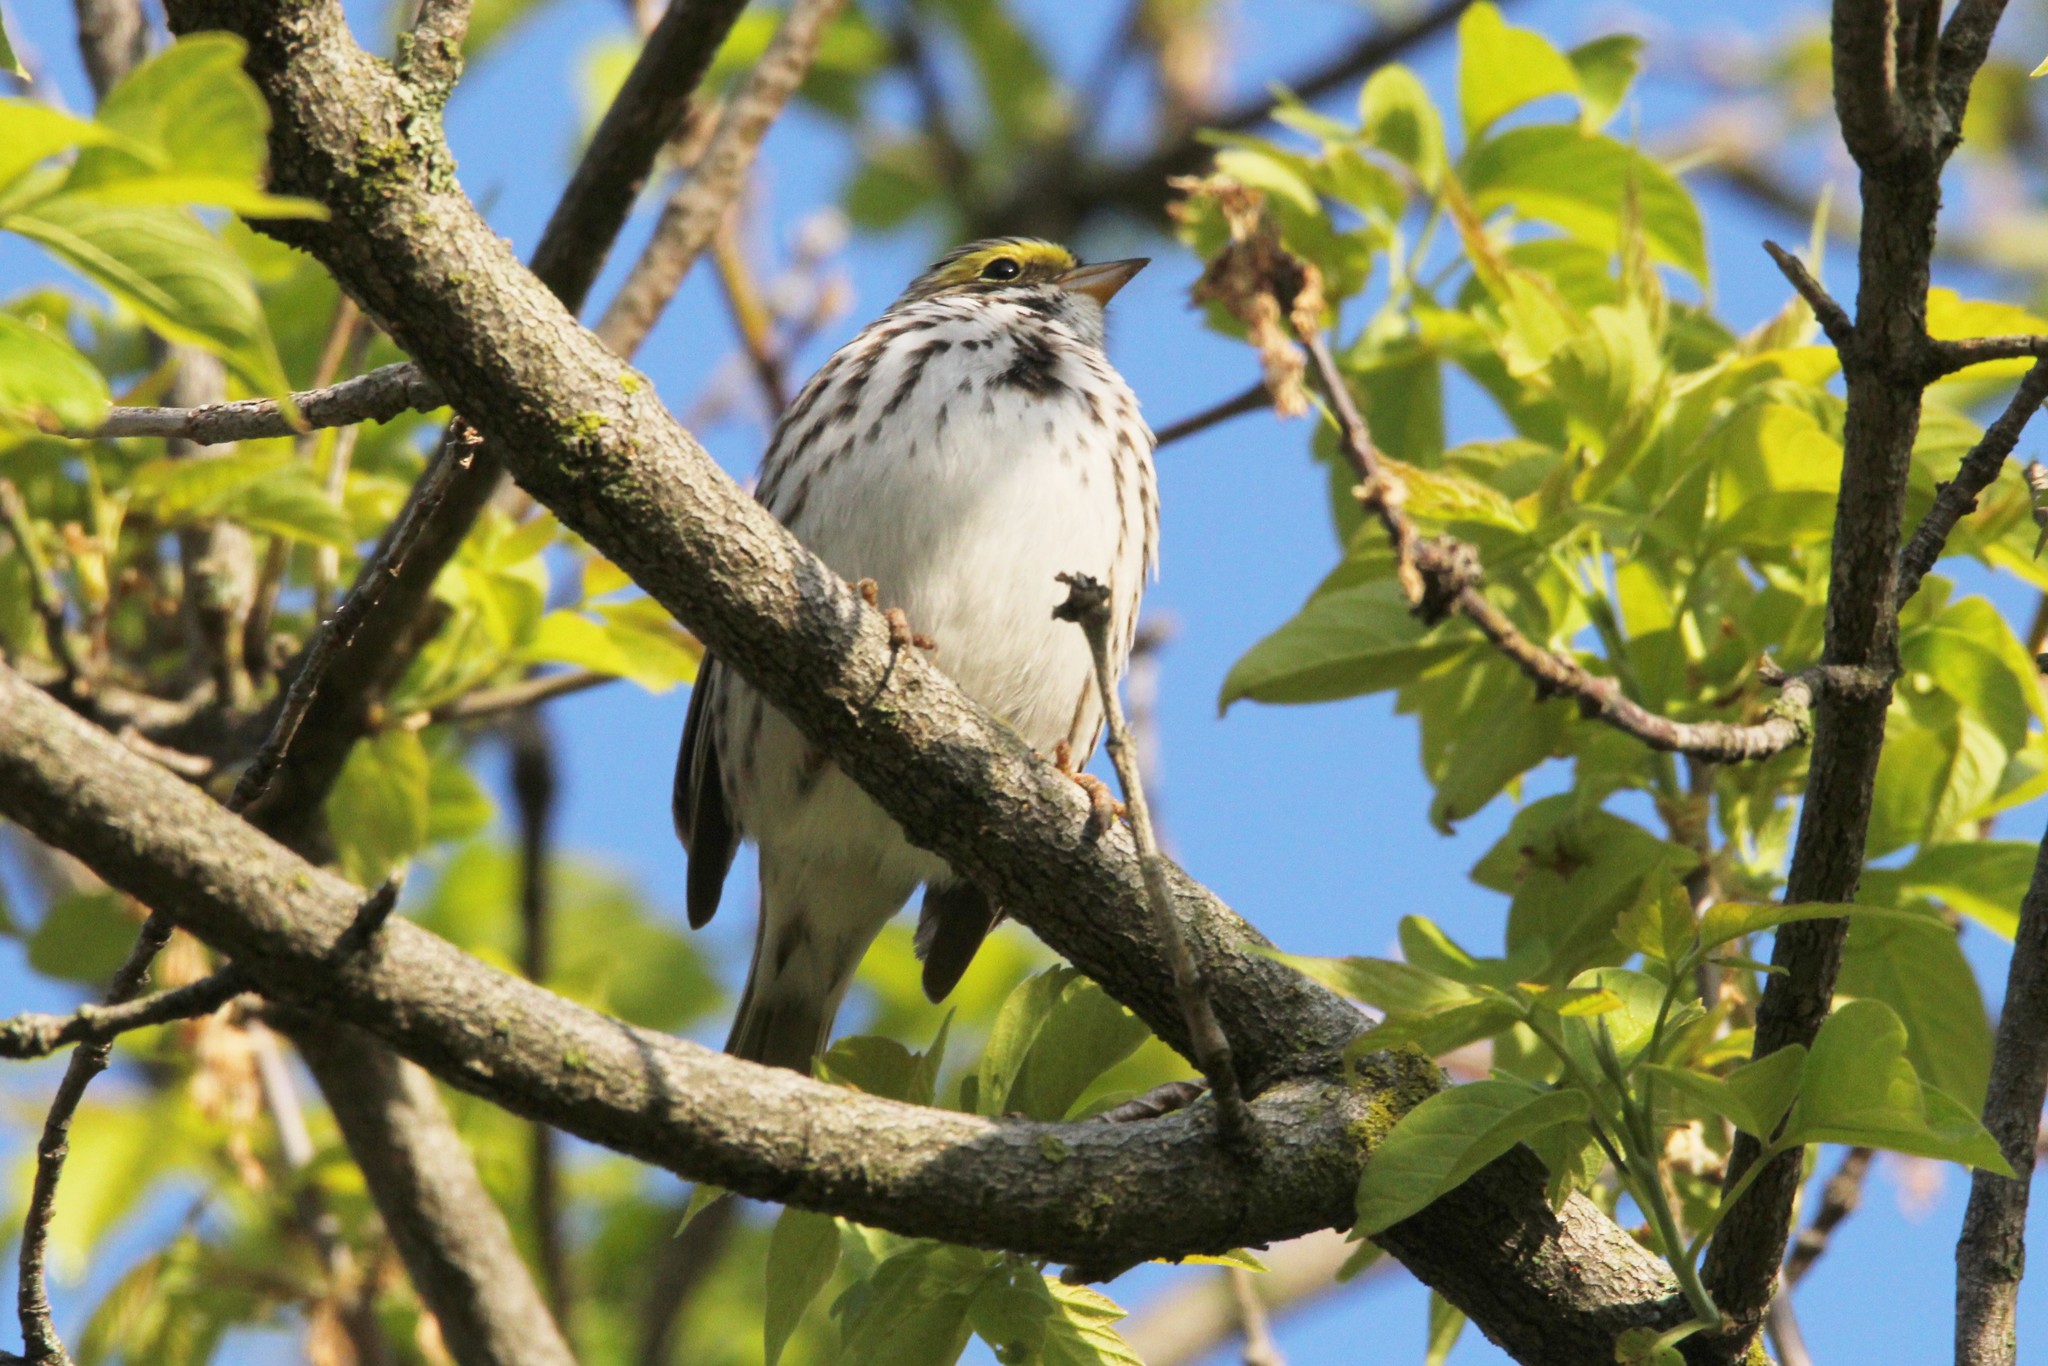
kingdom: Animalia
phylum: Chordata
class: Aves
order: Passeriformes
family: Passerellidae
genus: Passerculus
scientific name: Passerculus sandwichensis
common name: Savannah sparrow
